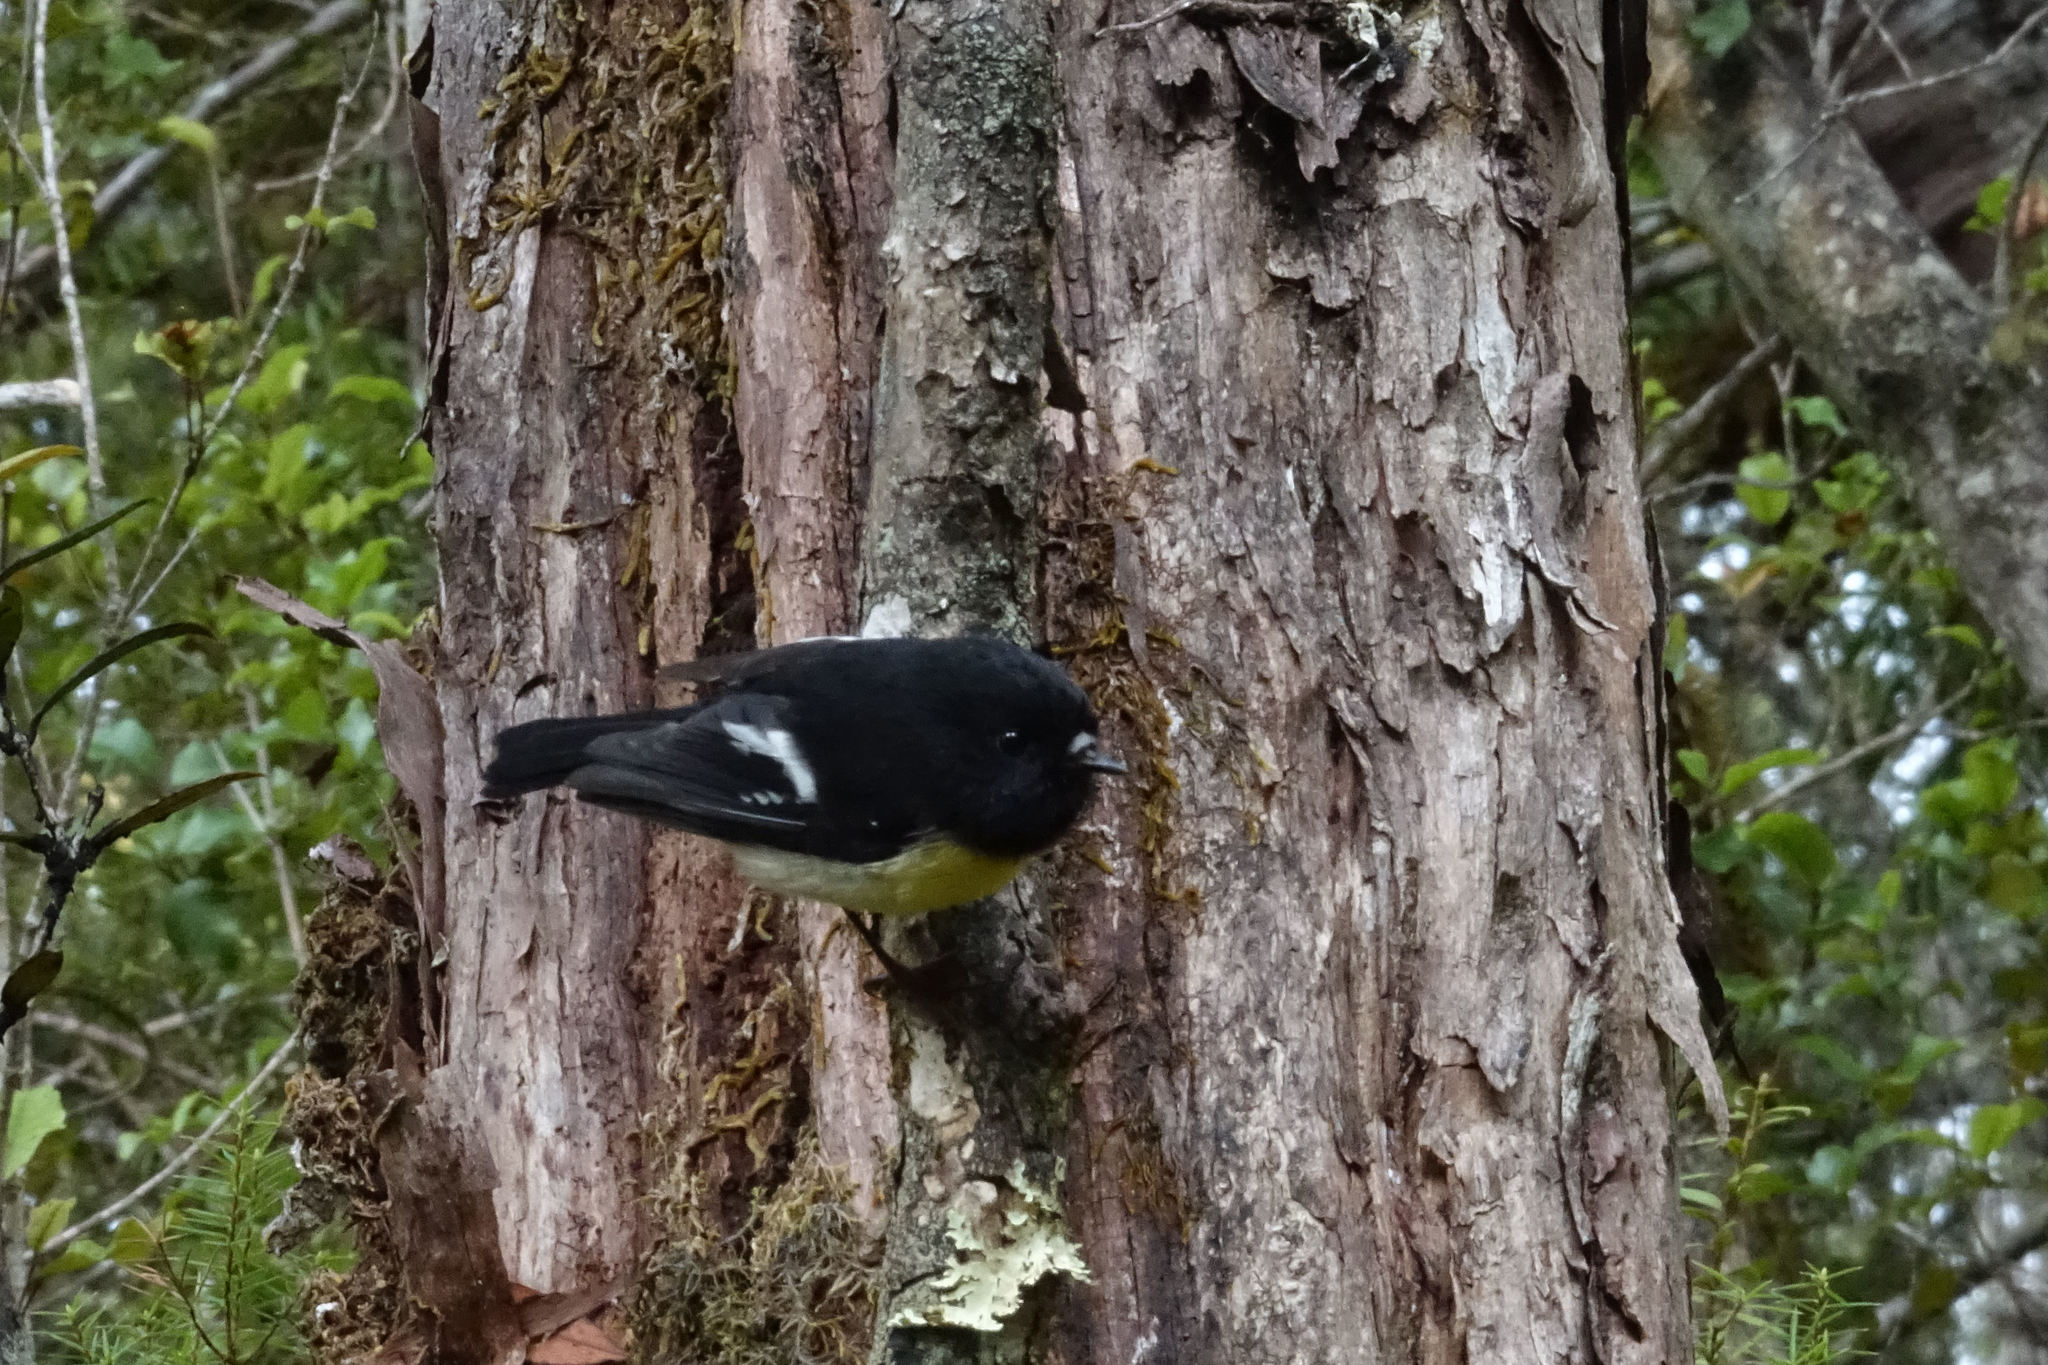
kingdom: Animalia
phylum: Chordata
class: Aves
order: Passeriformes
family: Petroicidae
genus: Petroica
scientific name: Petroica macrocephala
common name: Tomtit
